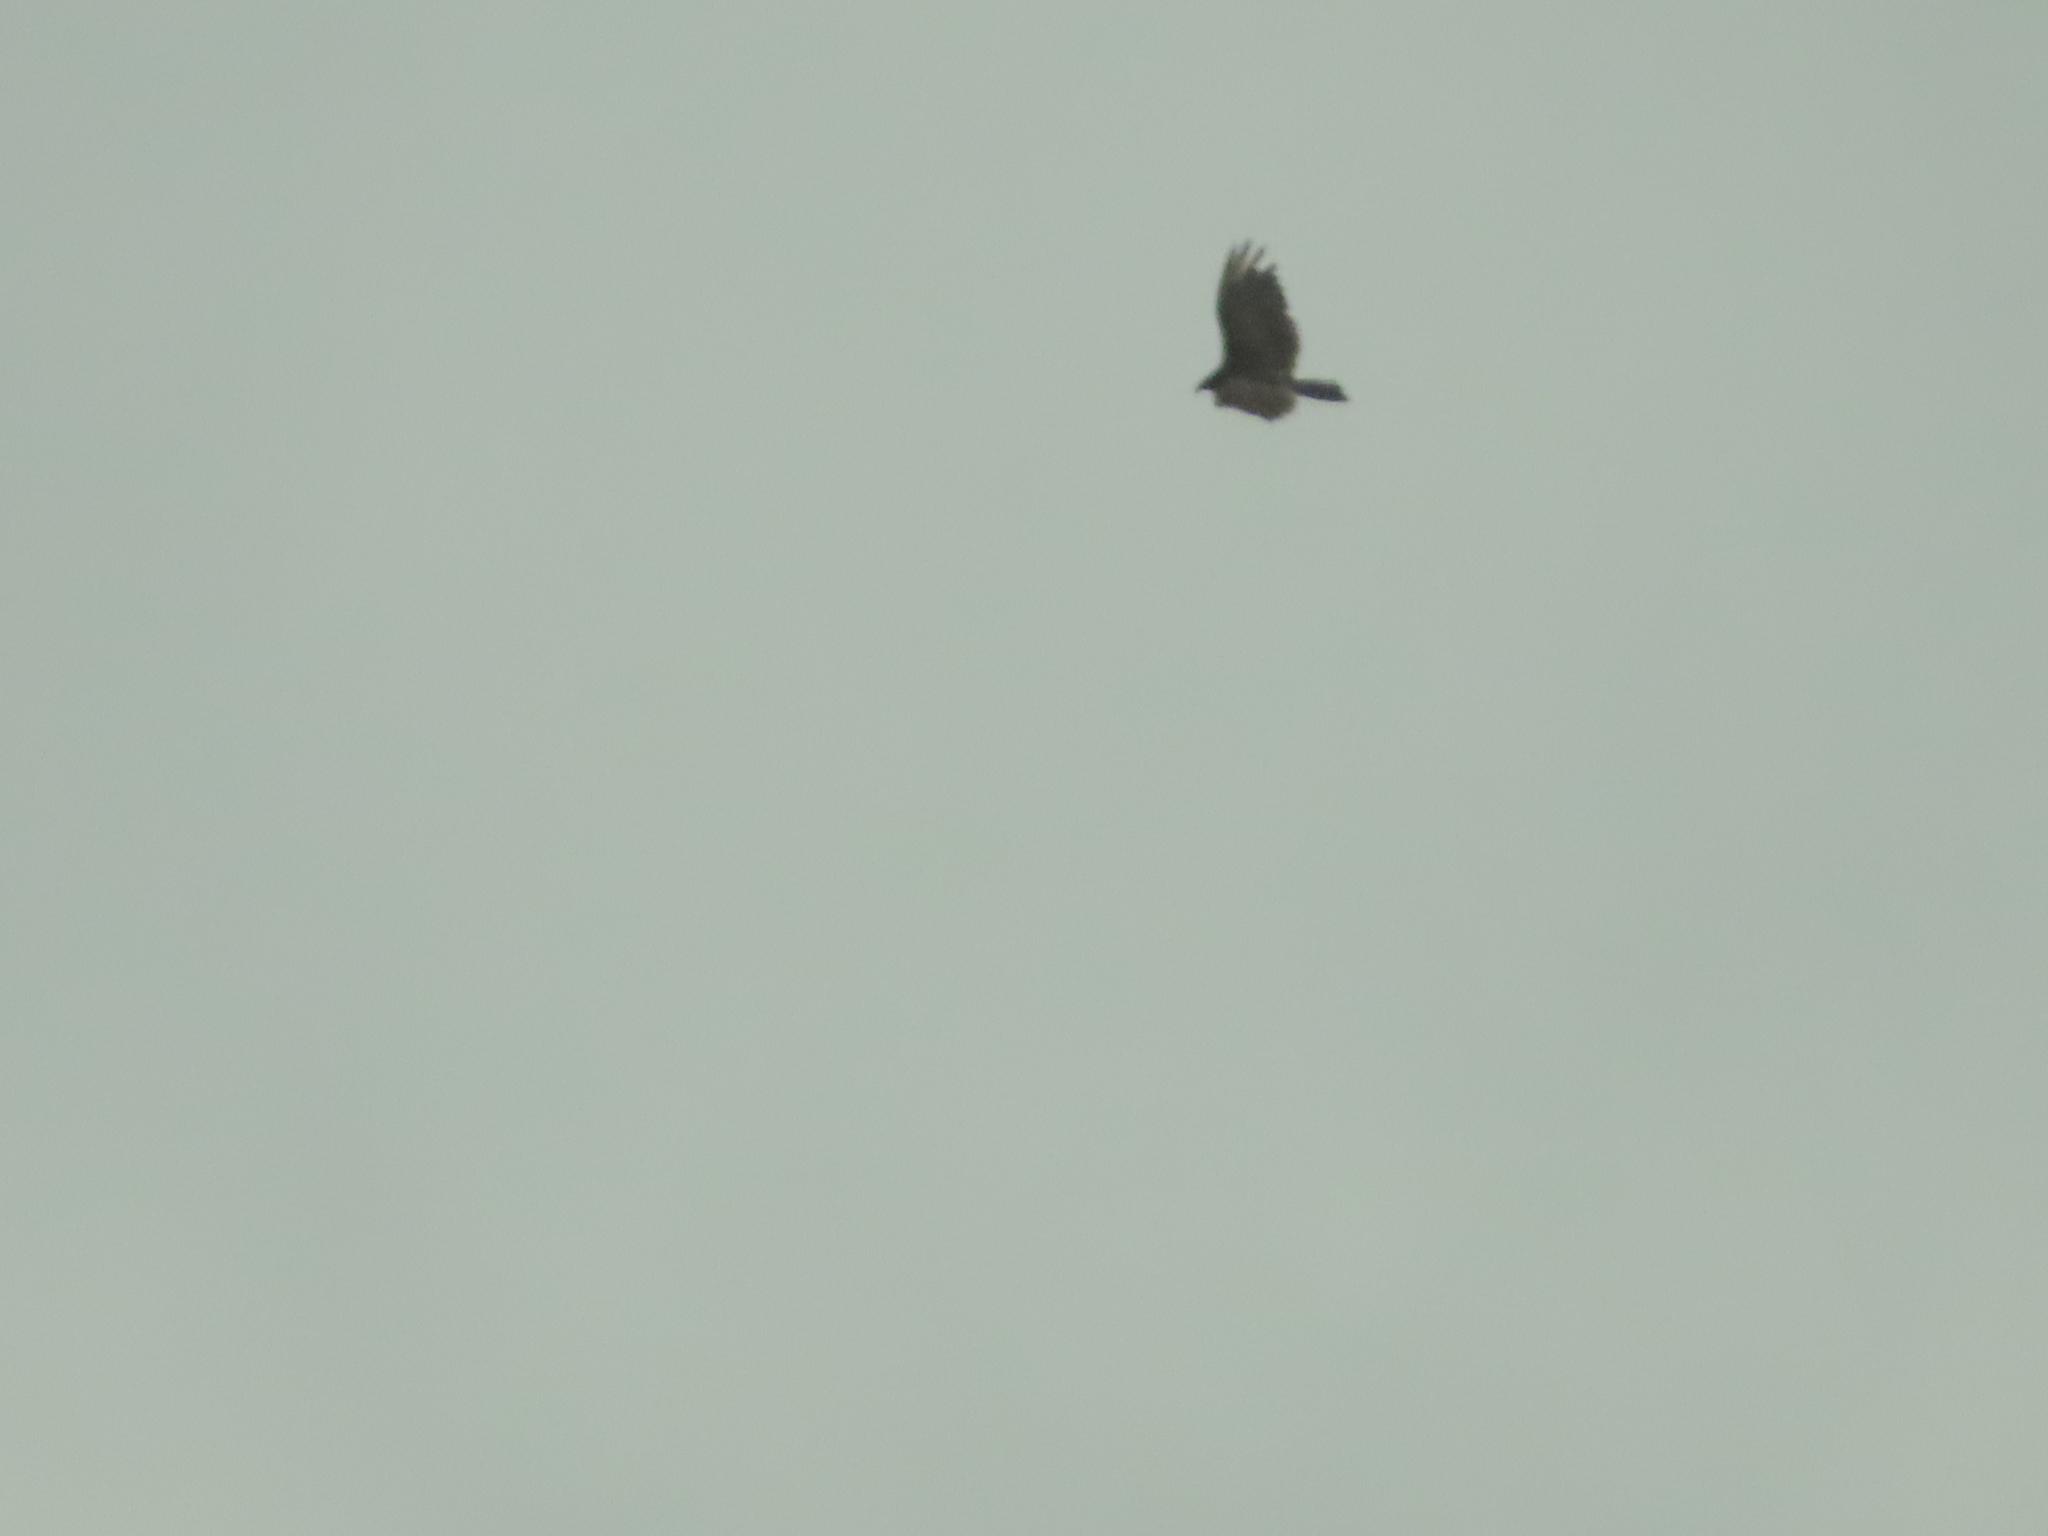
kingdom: Animalia
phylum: Chordata
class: Aves
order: Accipitriformes
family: Cathartidae
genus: Cathartes
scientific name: Cathartes aura
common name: Turkey vulture
